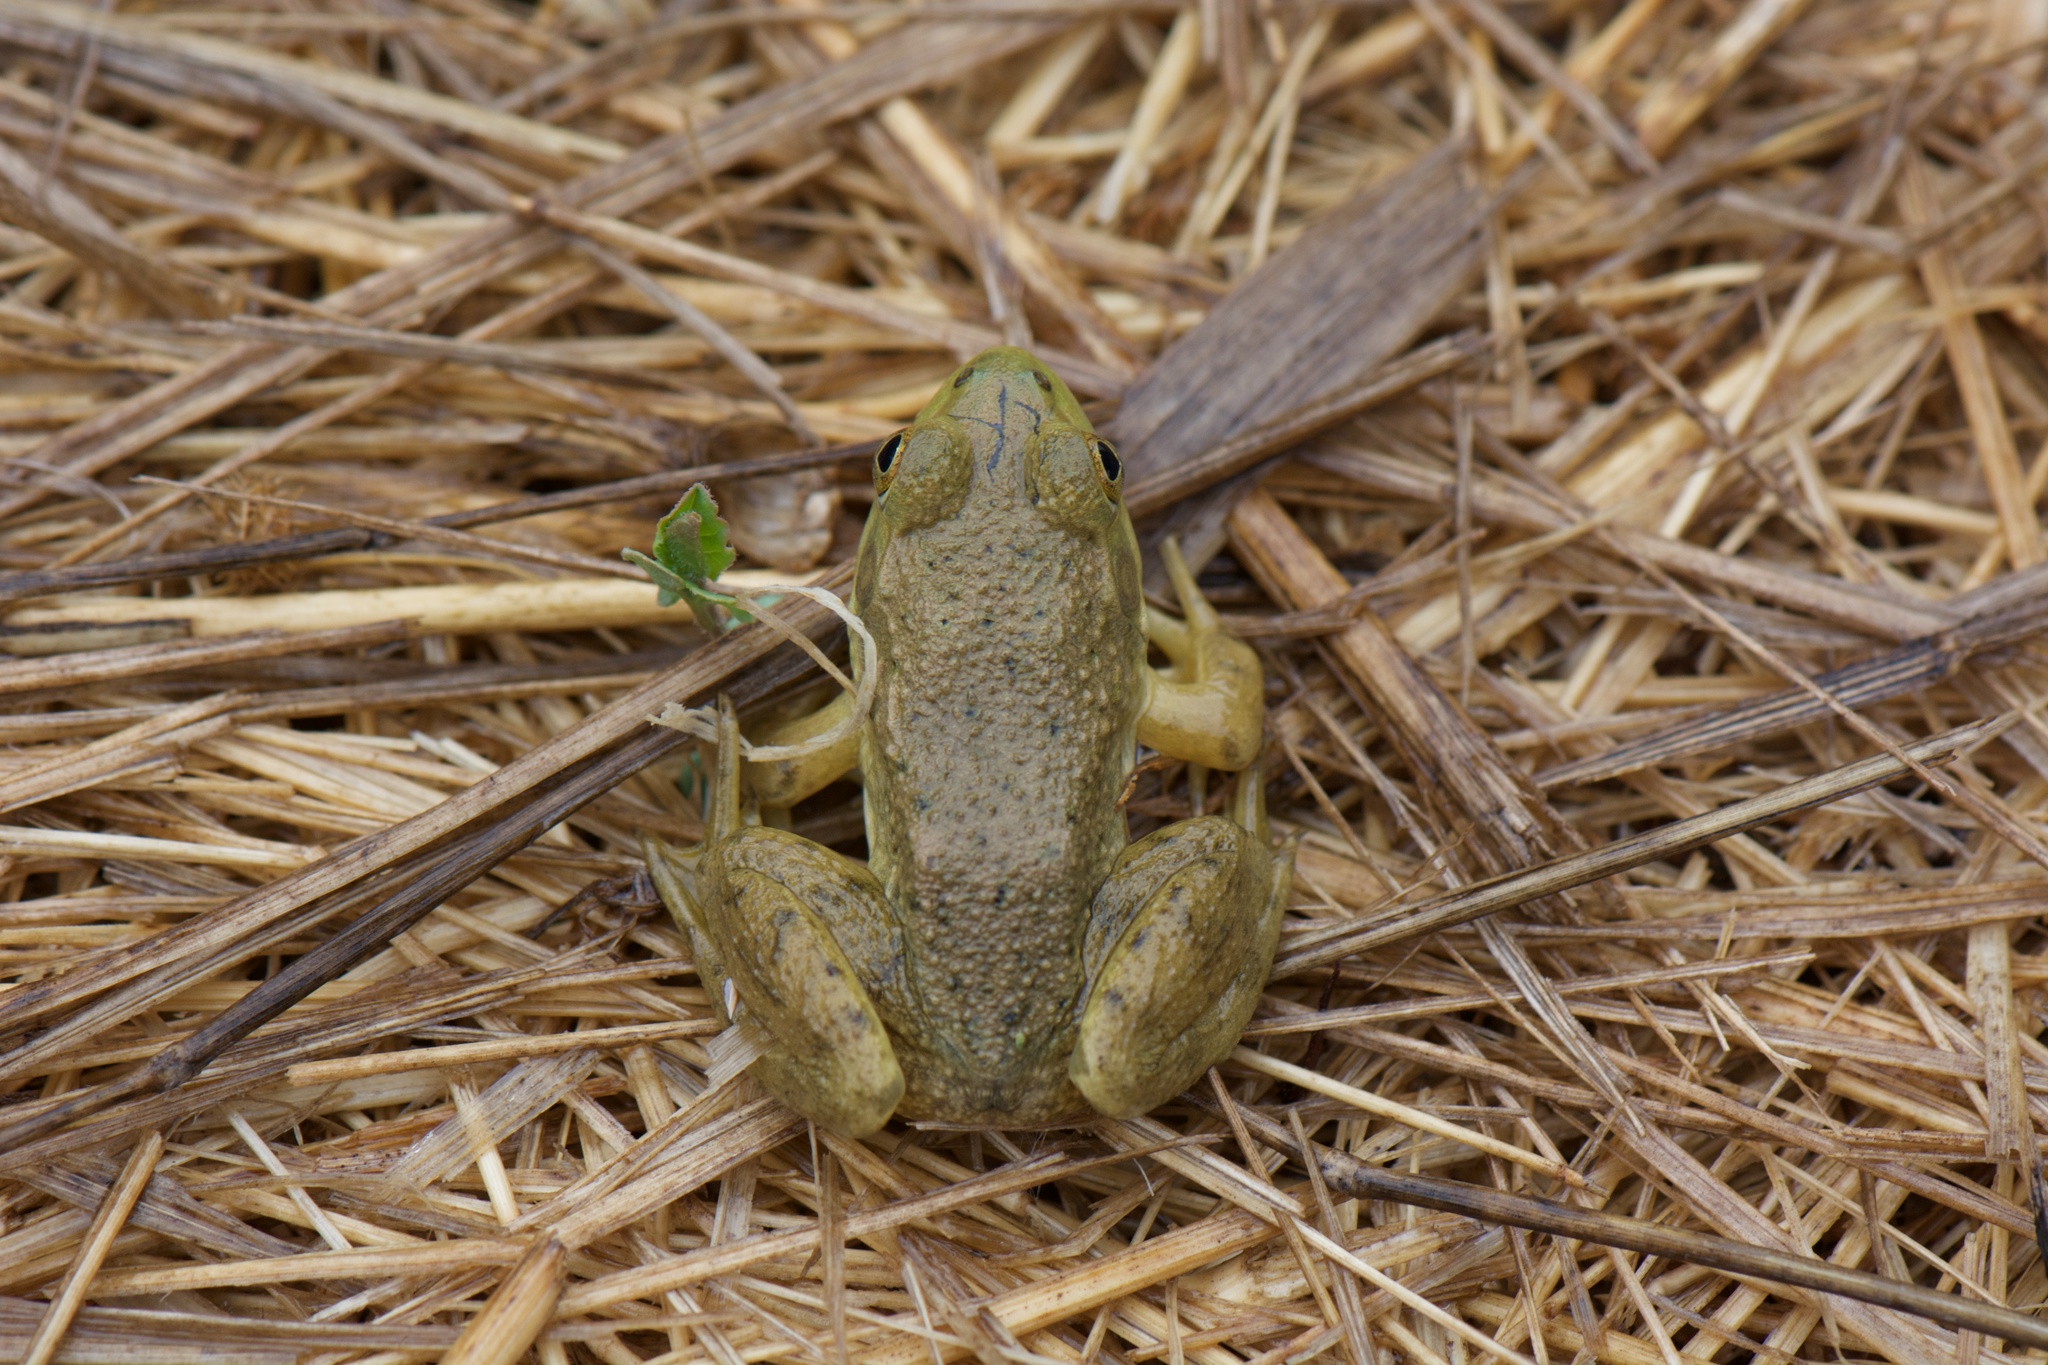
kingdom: Animalia
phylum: Chordata
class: Amphibia
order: Anura
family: Ranidae
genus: Lithobates
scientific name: Lithobates catesbeianus
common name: American bullfrog
